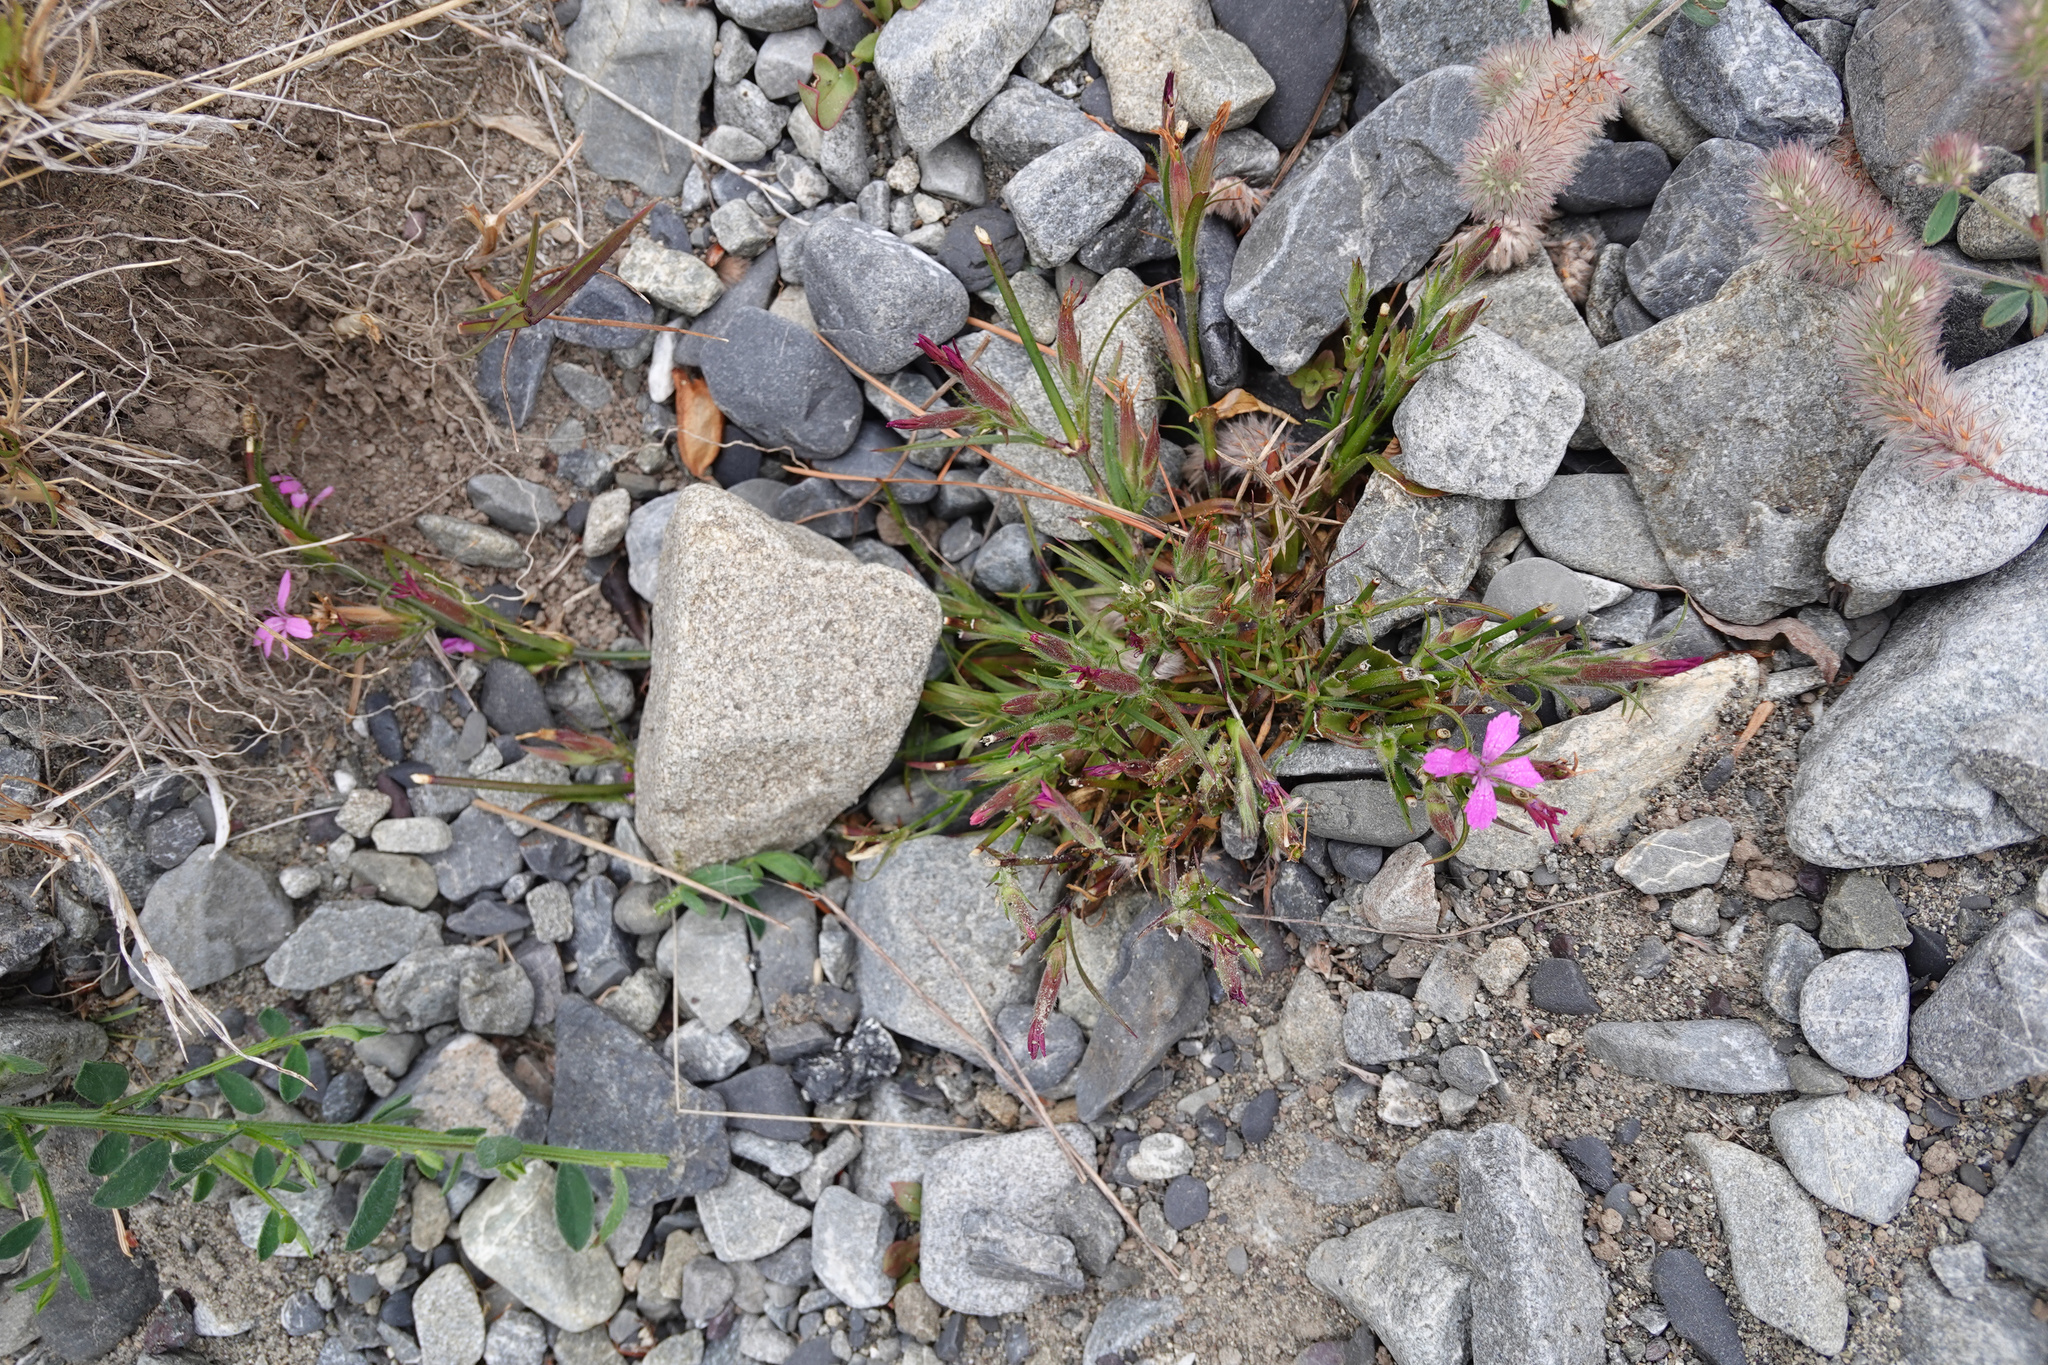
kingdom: Plantae
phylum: Tracheophyta
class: Magnoliopsida
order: Caryophyllales
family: Caryophyllaceae
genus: Dianthus
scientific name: Dianthus armeria
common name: Deptford pink
